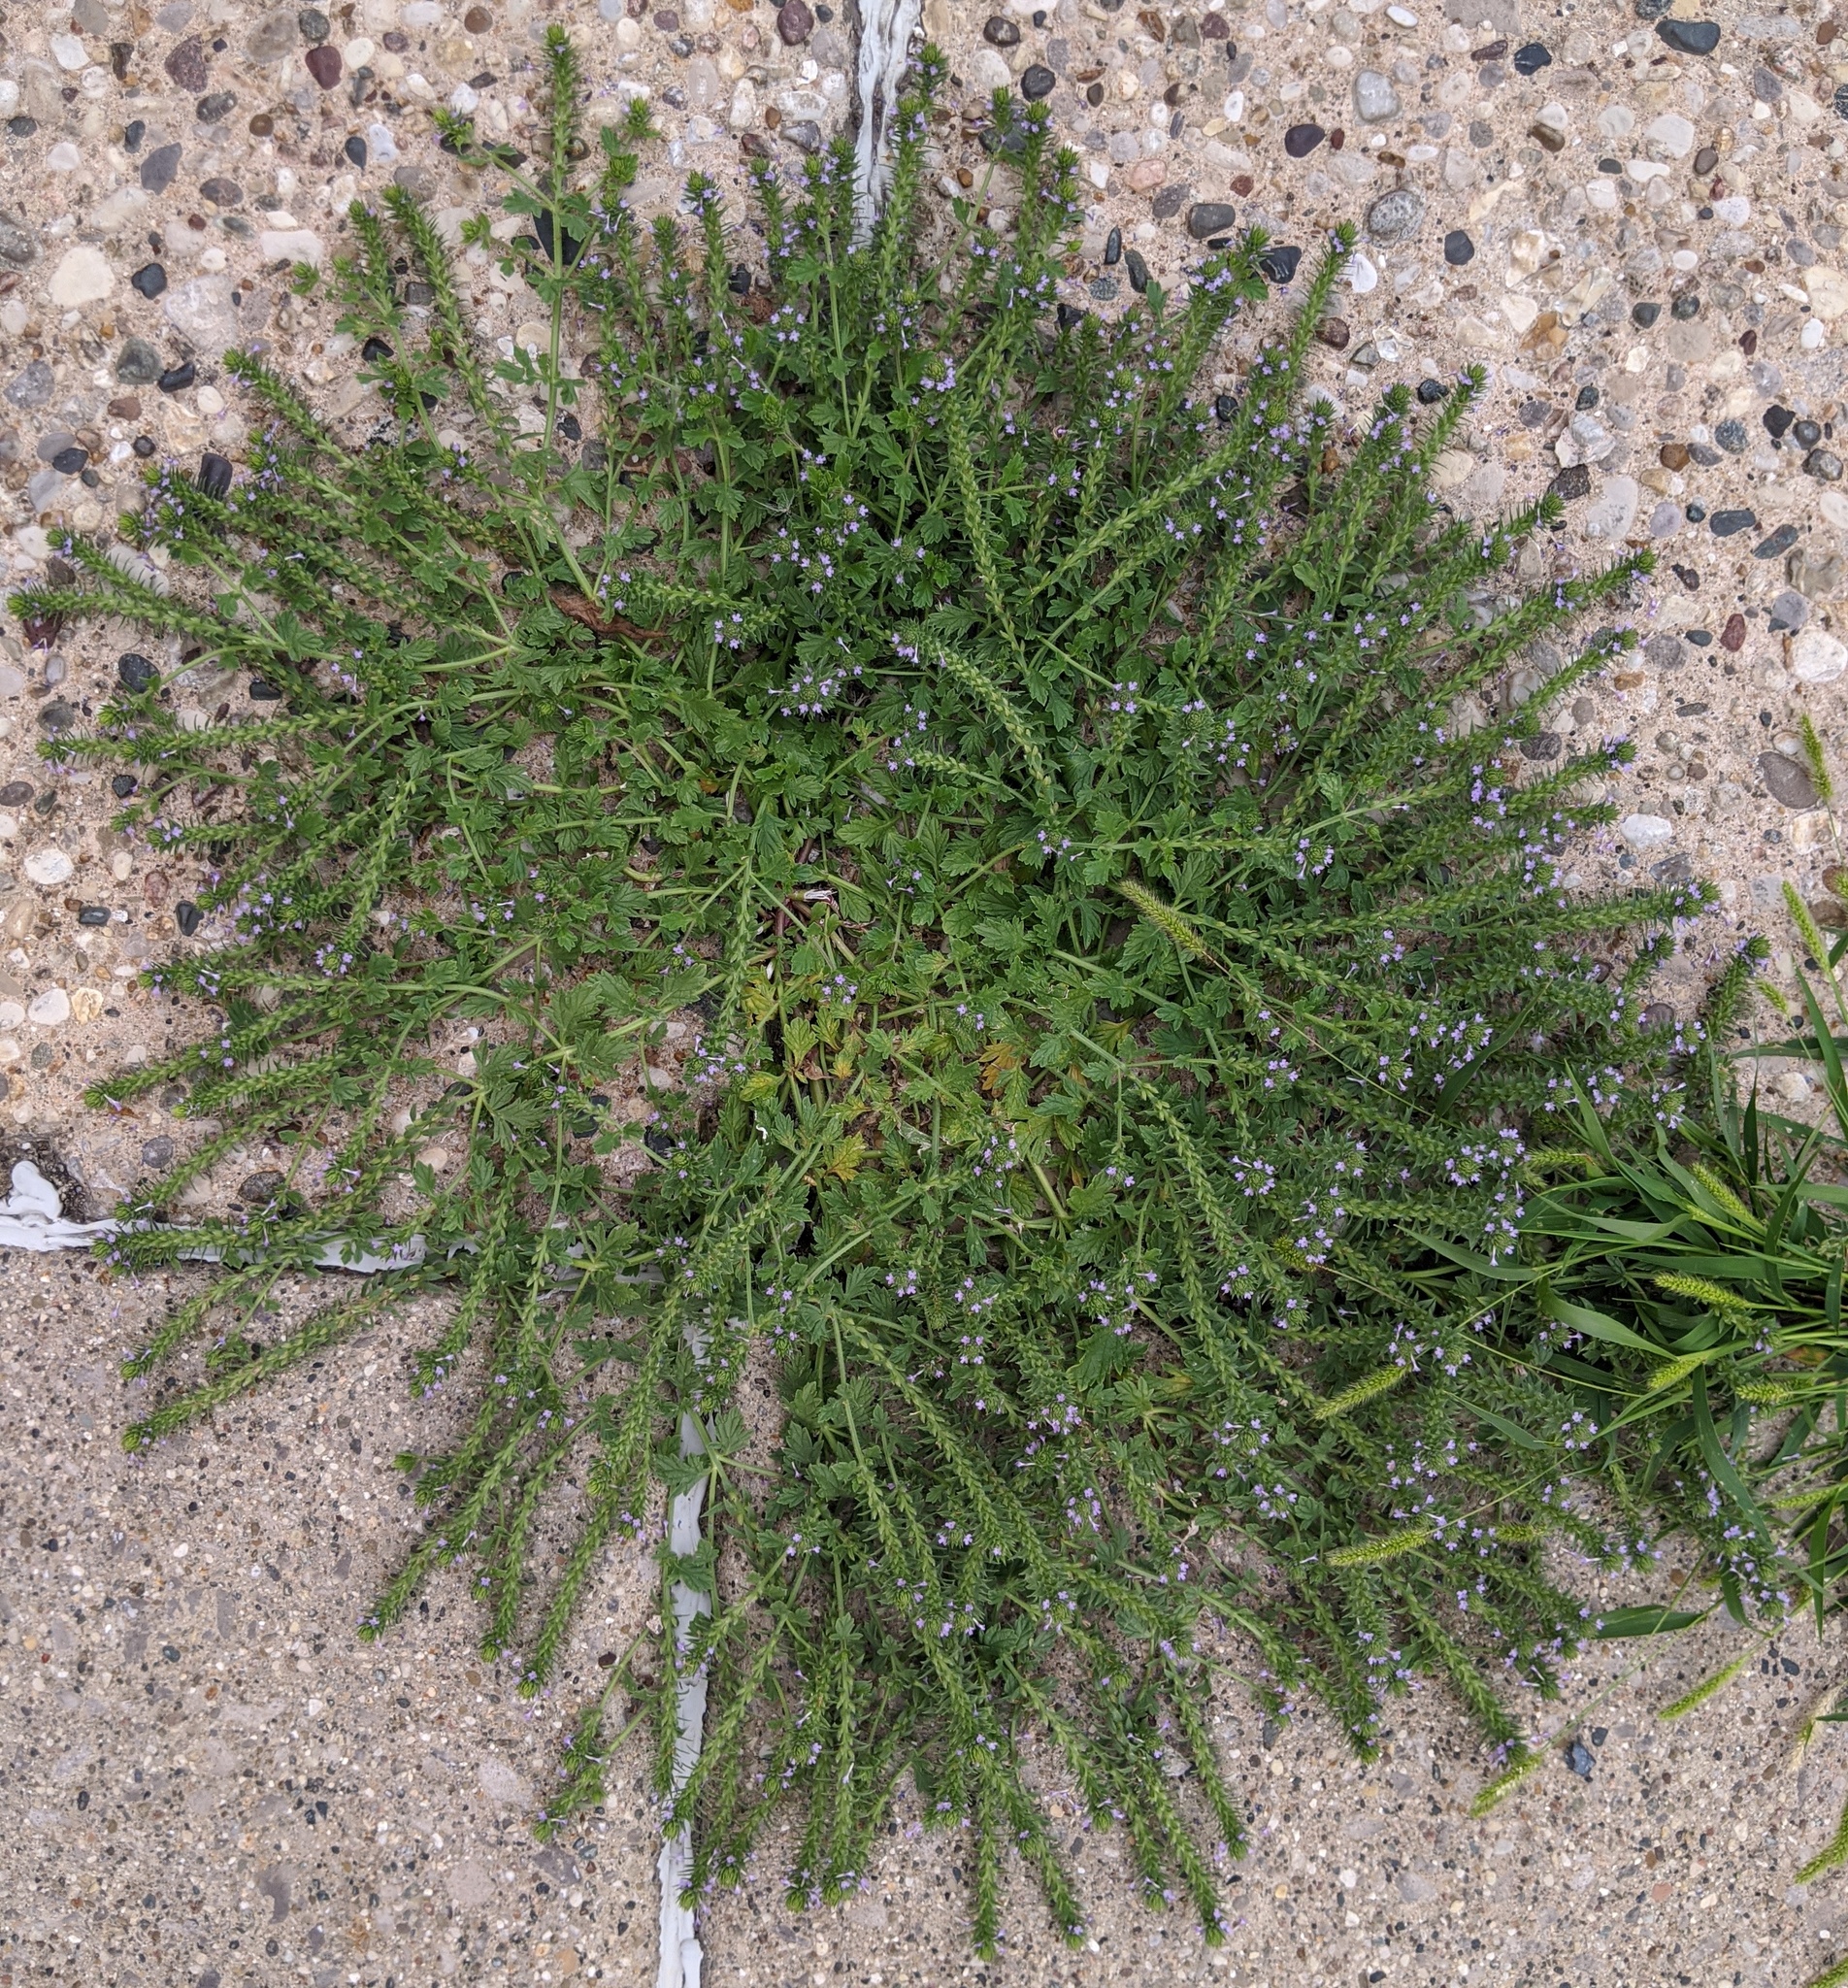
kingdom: Plantae
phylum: Tracheophyta
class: Magnoliopsida
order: Lamiales
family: Verbenaceae
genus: Verbena
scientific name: Verbena bracteata
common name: Bracted vervain
